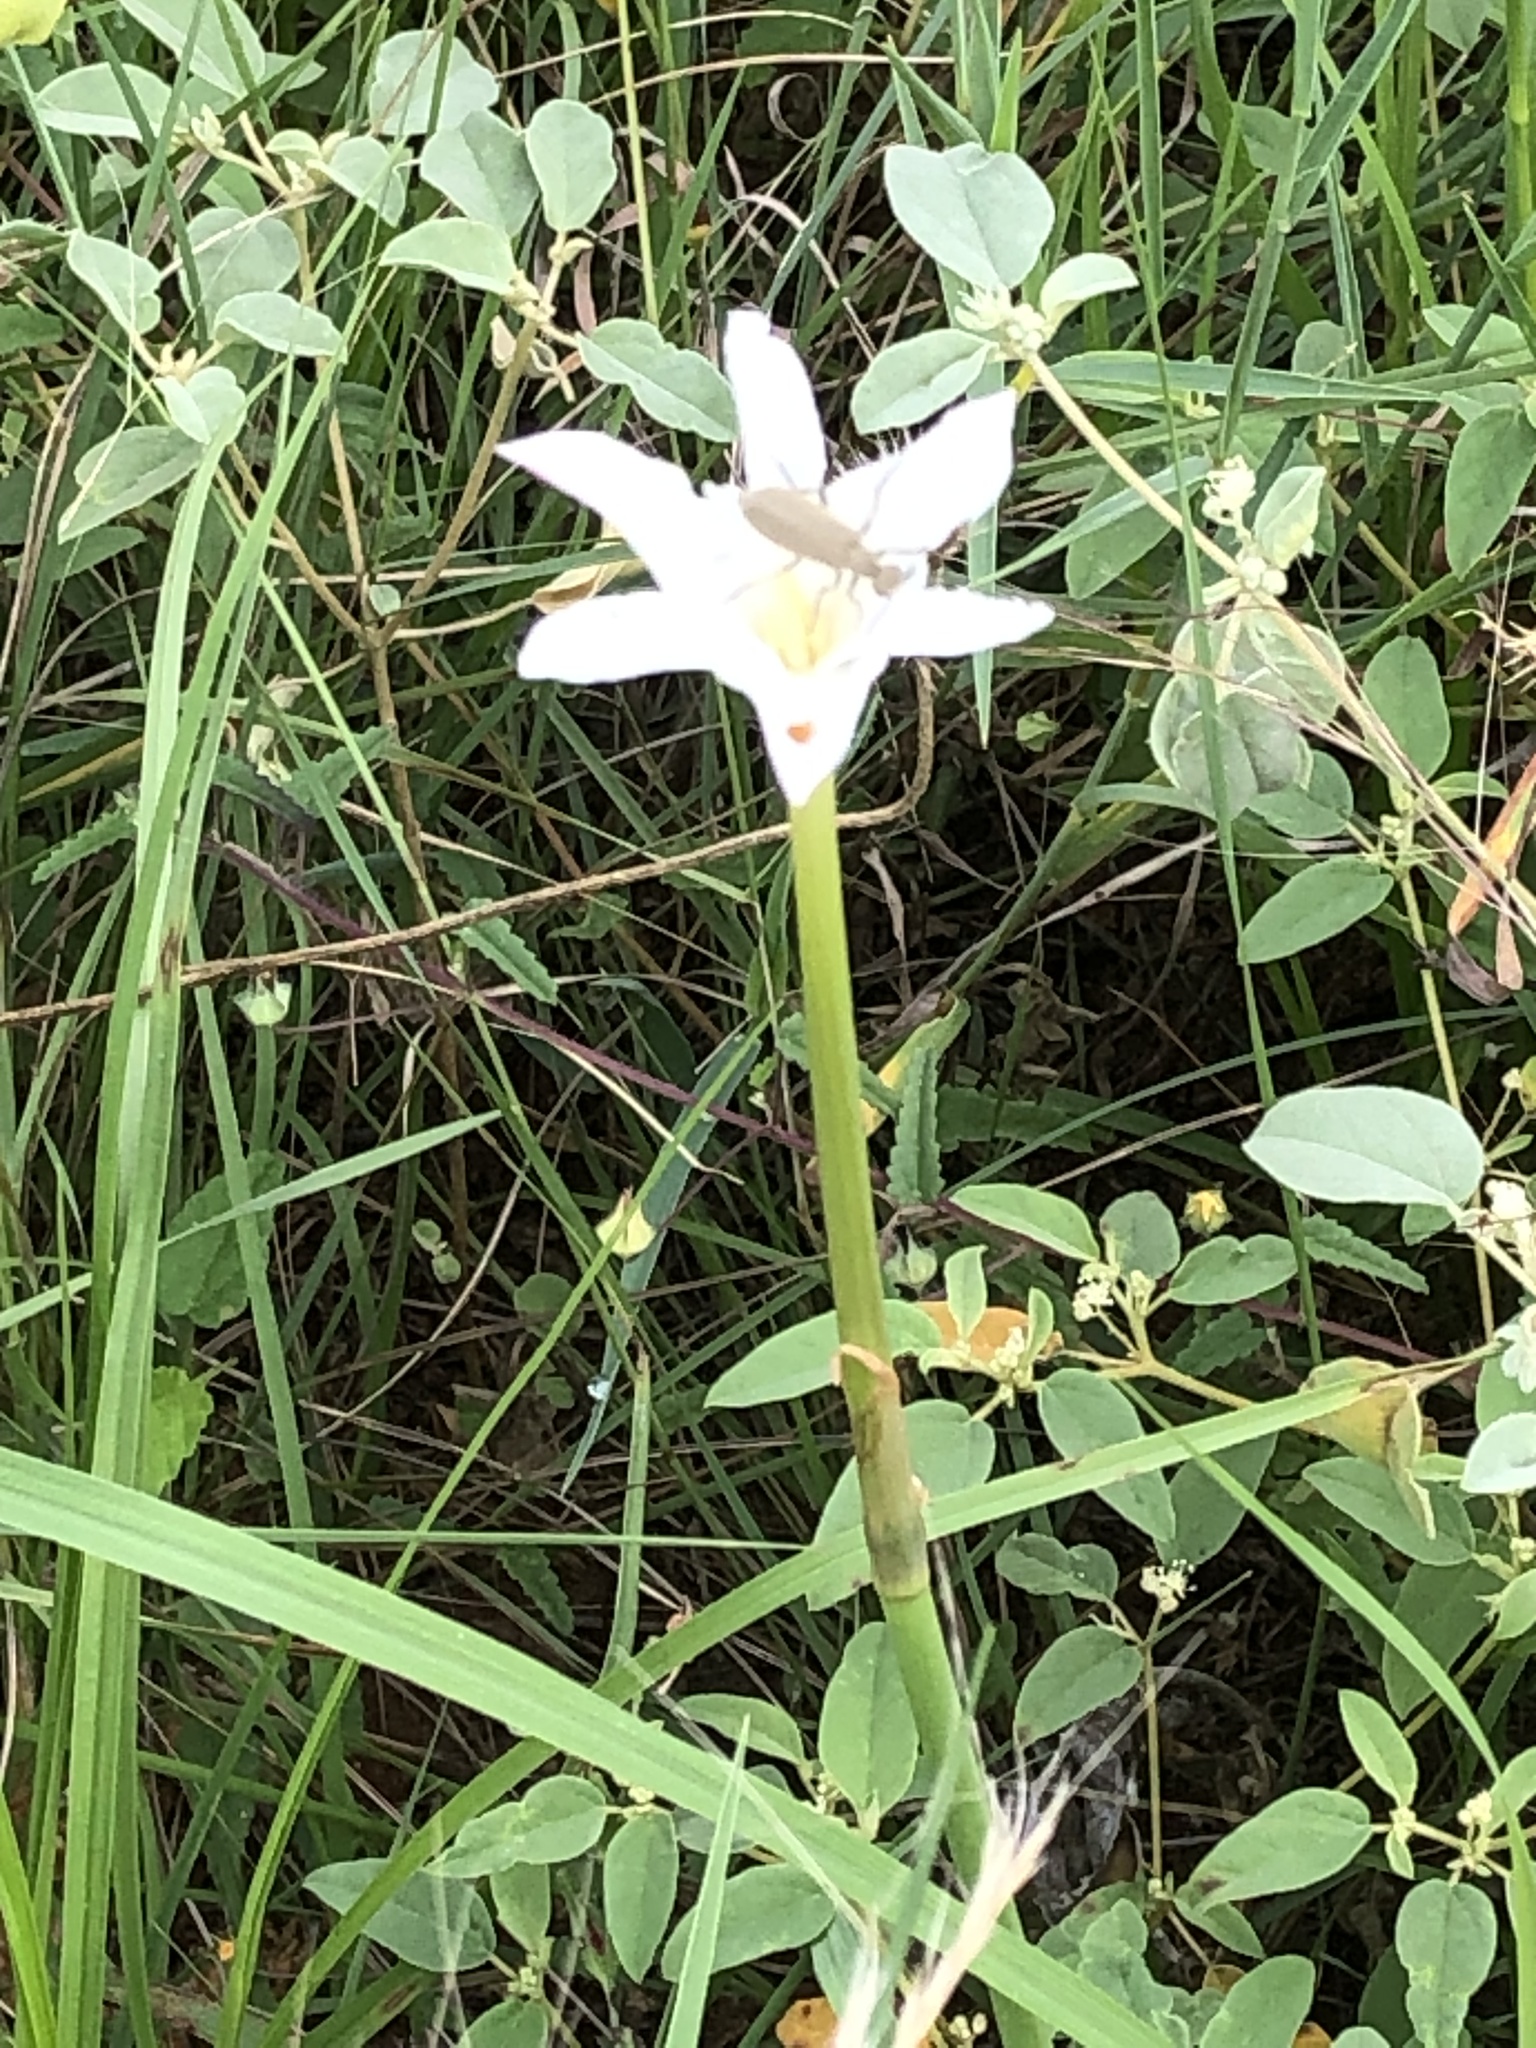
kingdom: Plantae
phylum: Tracheophyta
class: Liliopsida
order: Asparagales
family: Amaryllidaceae
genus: Zephyranthes
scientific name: Zephyranthes chlorosolen
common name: Evening rain-lily
